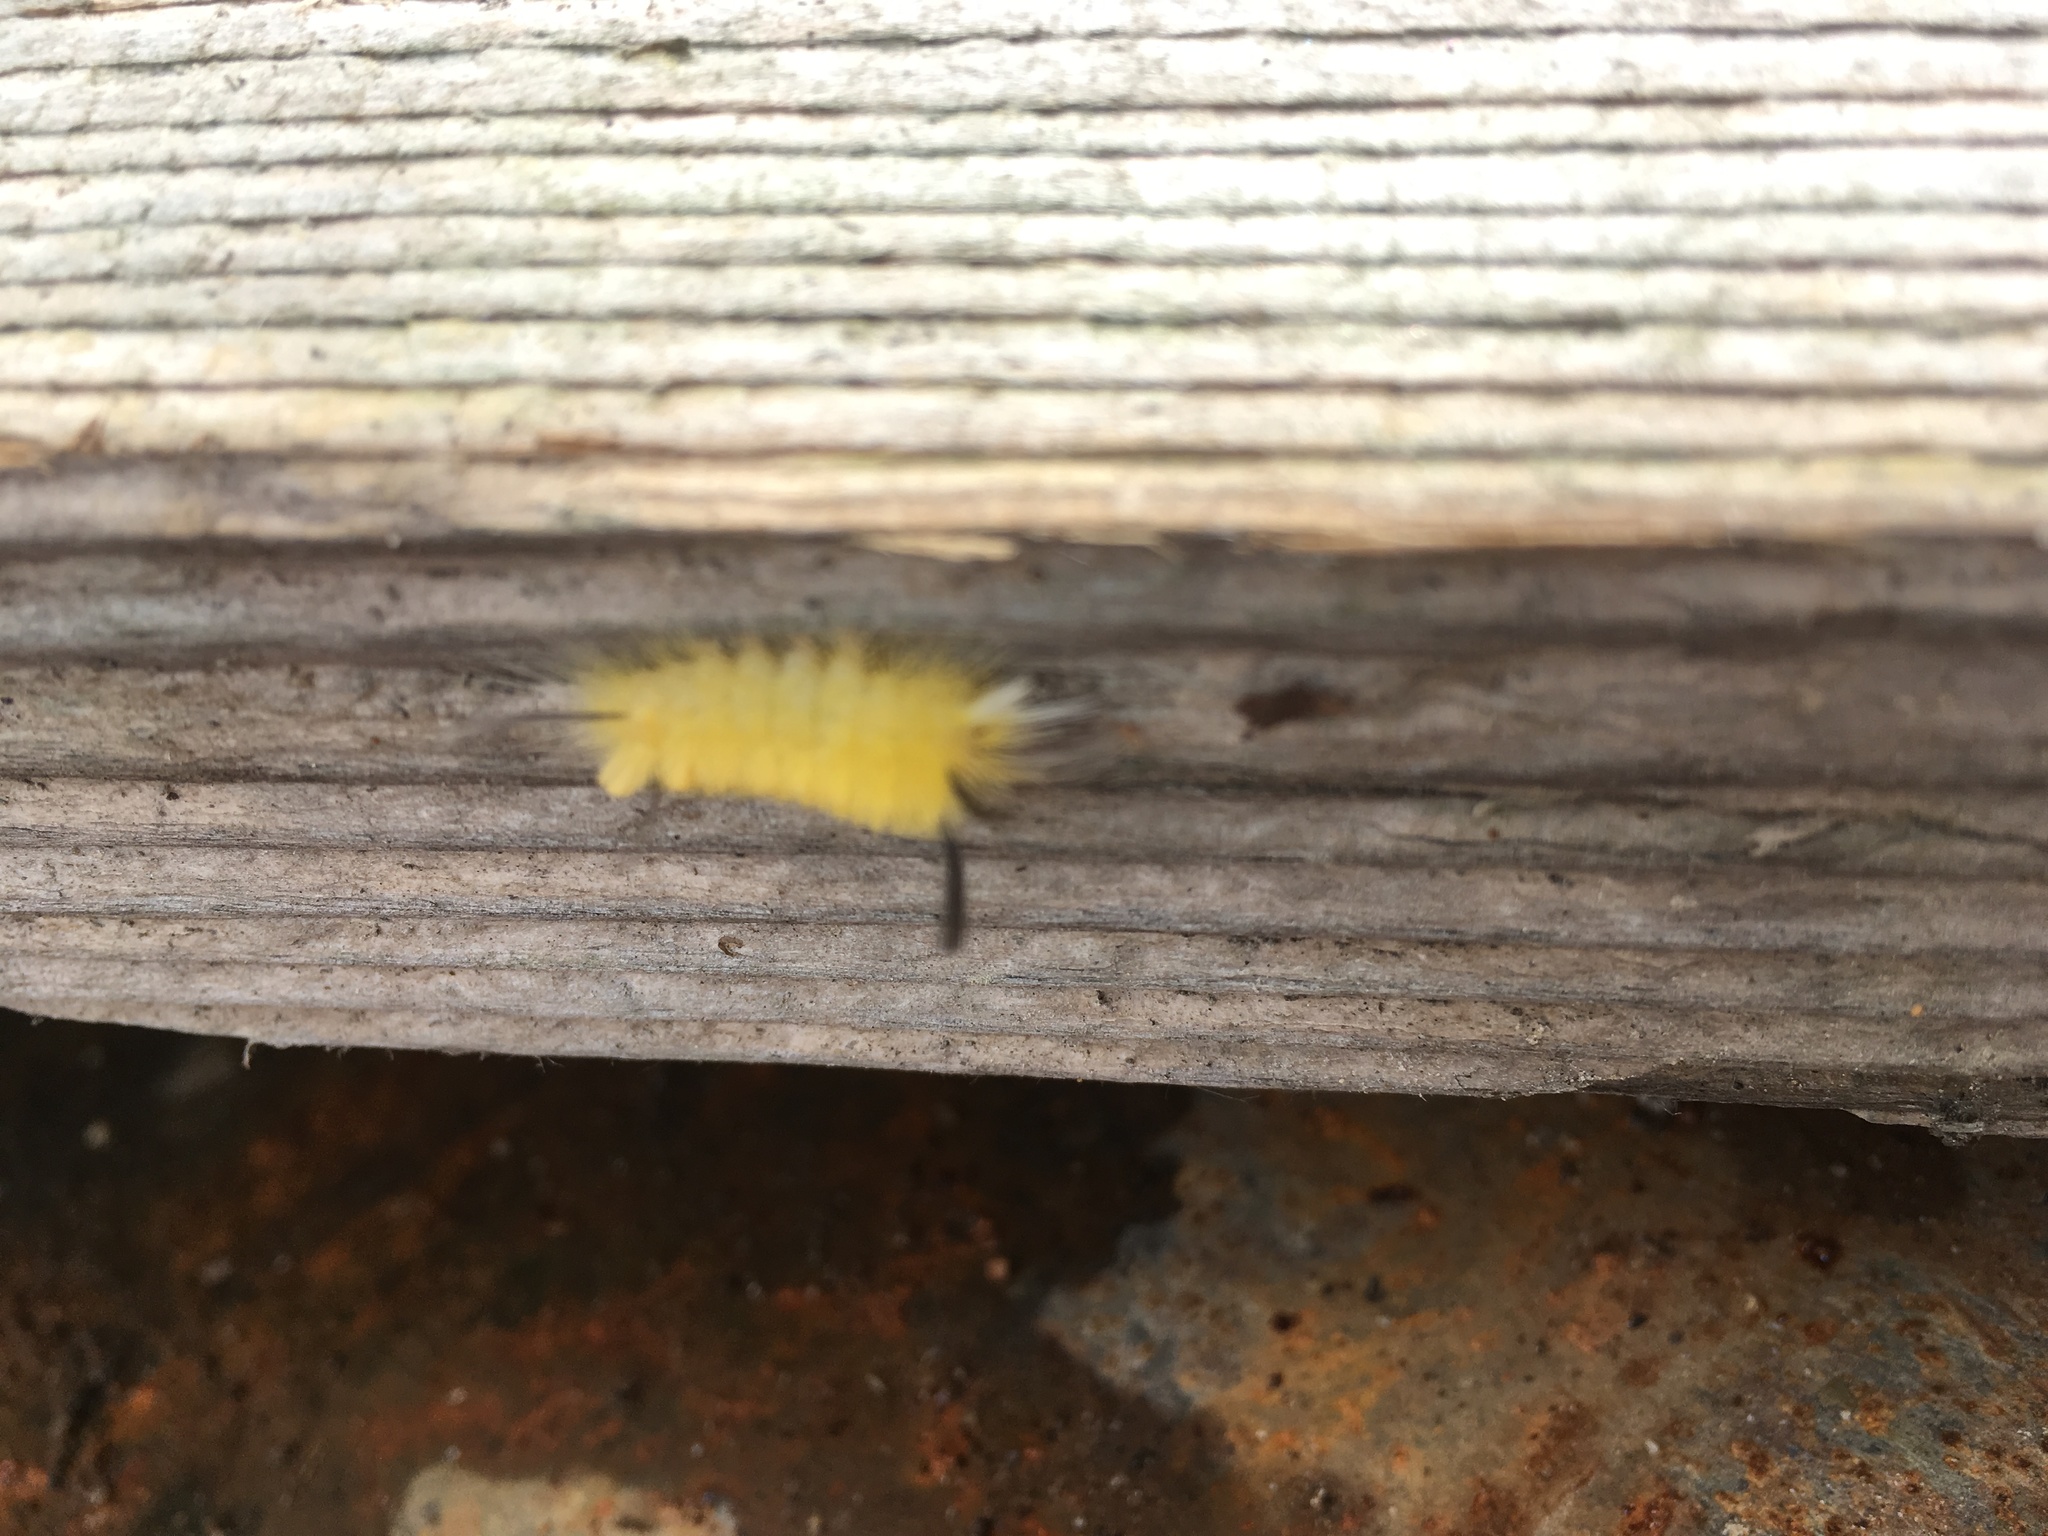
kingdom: Animalia
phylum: Arthropoda
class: Insecta
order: Lepidoptera
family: Erebidae
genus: Halysidota
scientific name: Halysidota tessellaris
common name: Banded tussock moth
